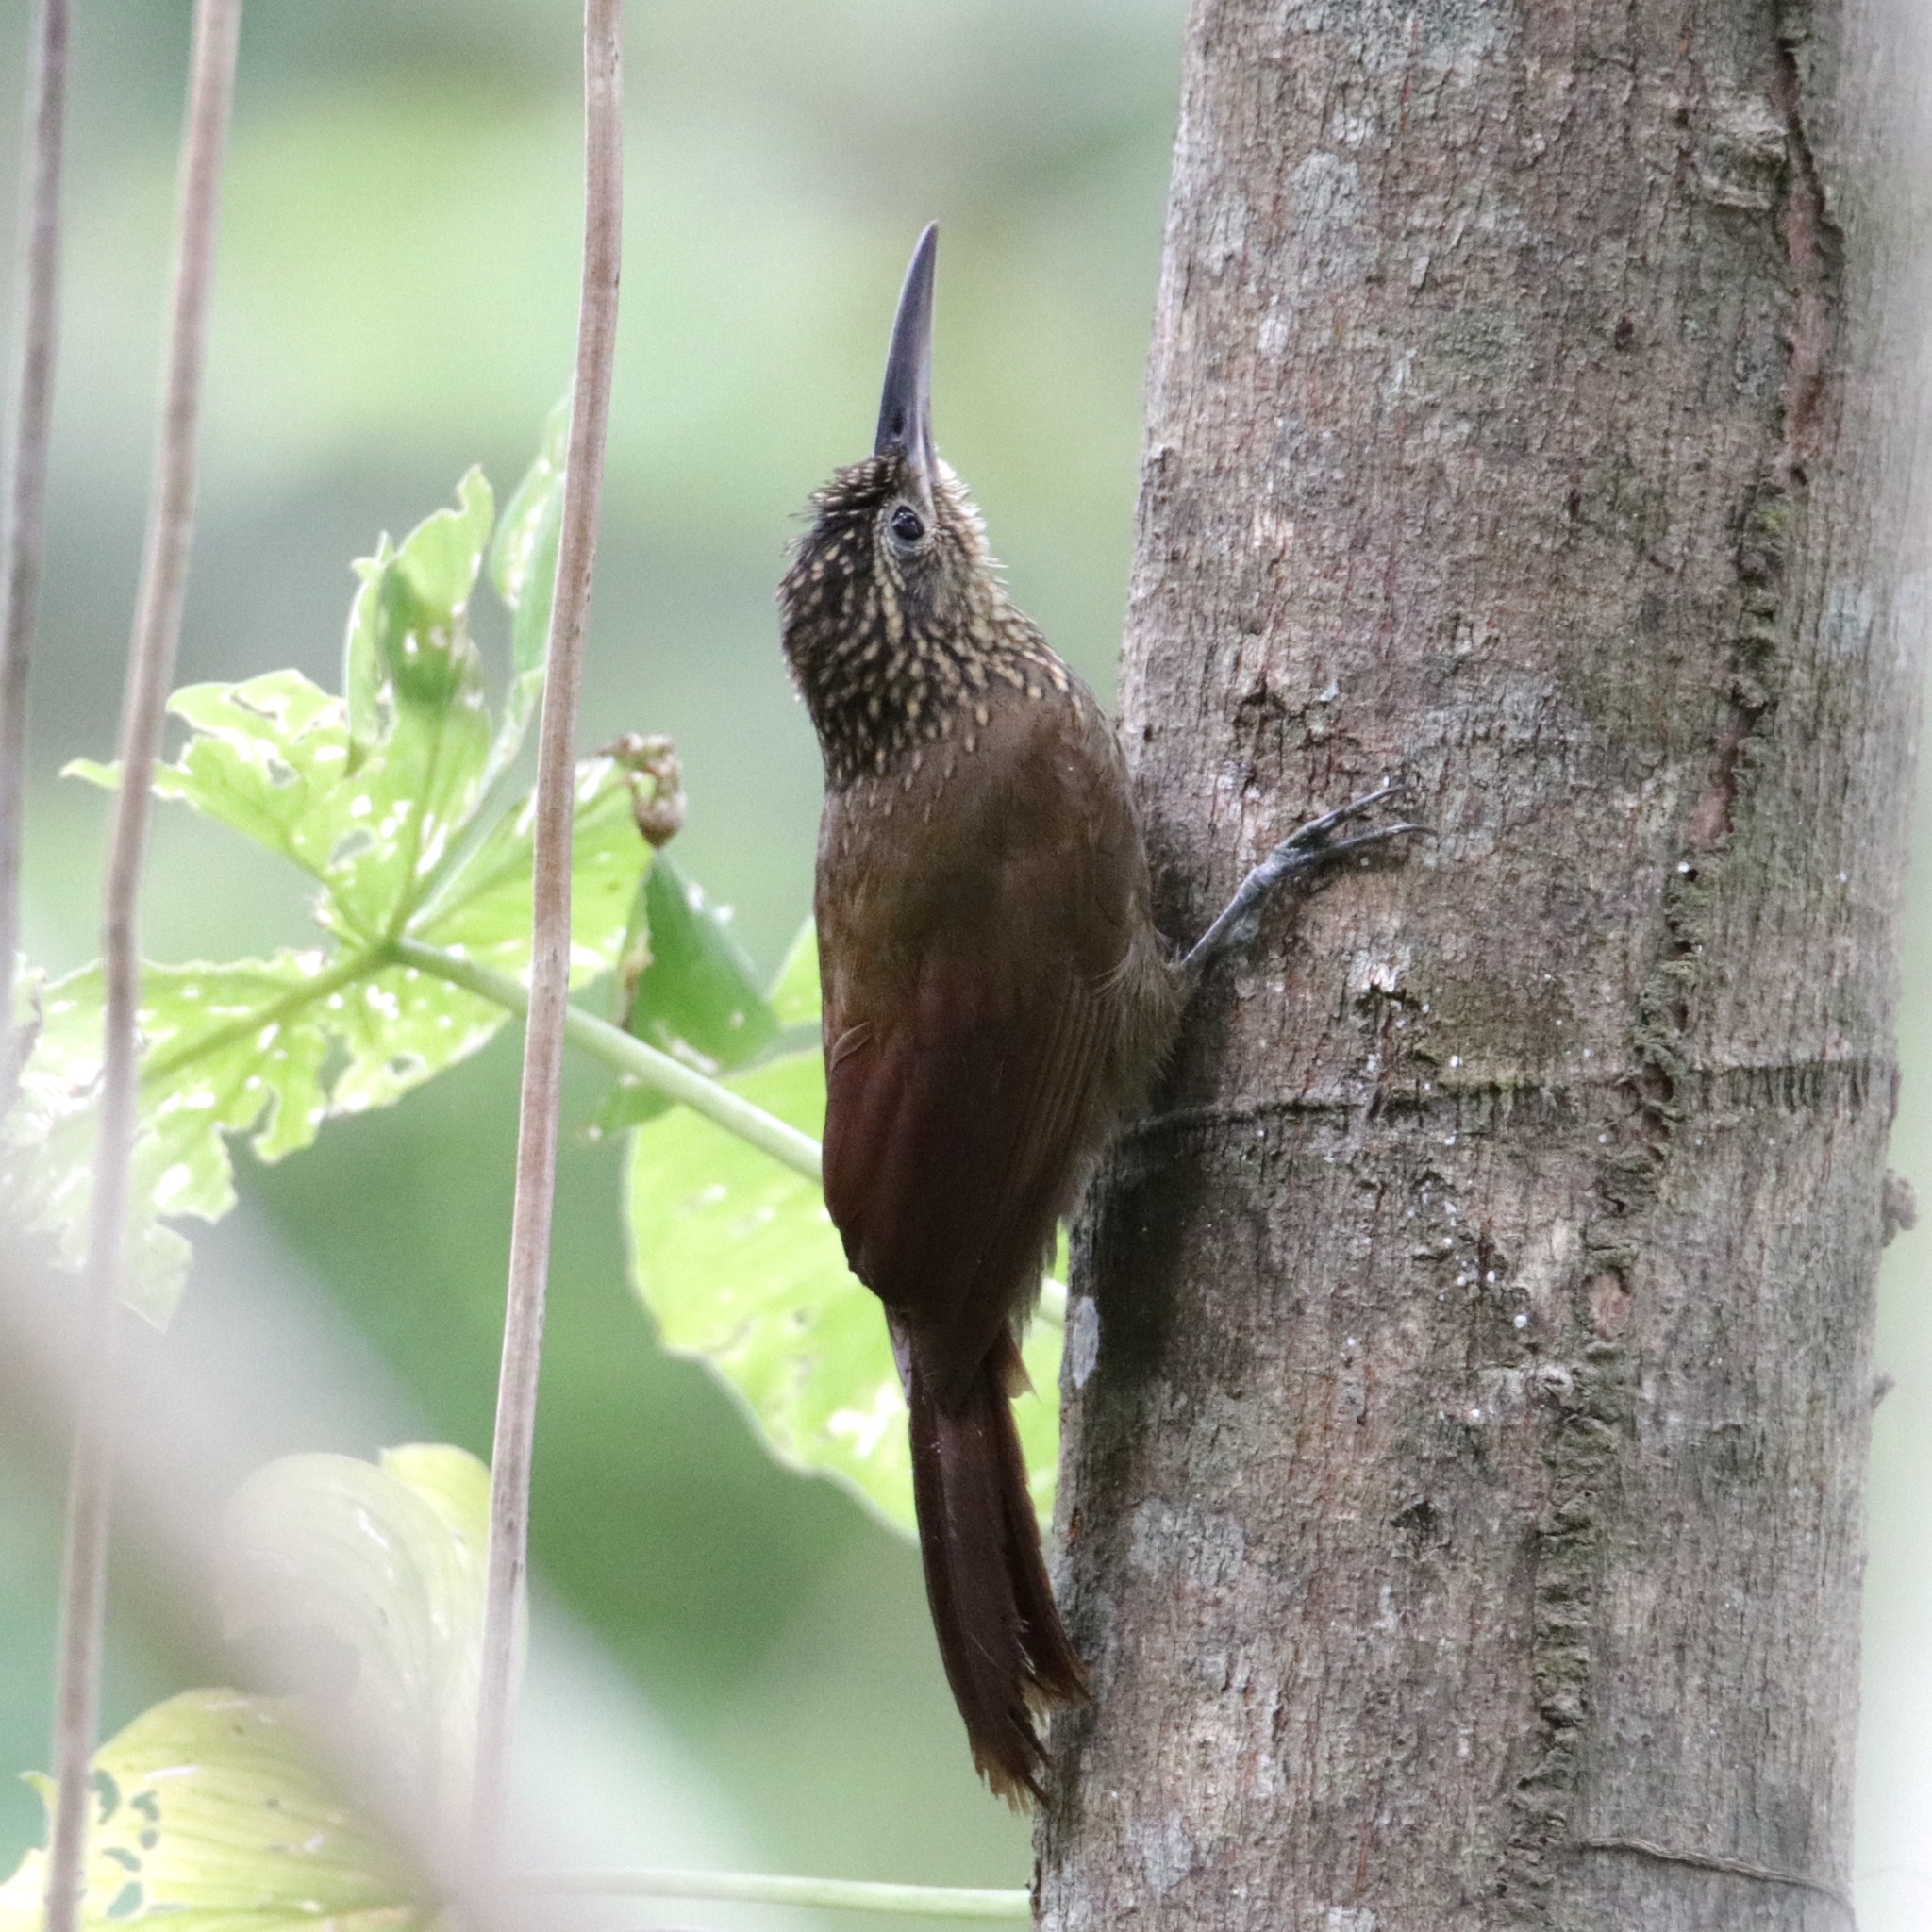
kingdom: Animalia
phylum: Chordata
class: Aves
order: Passeriformes
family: Furnariidae
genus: Xiphorhynchus
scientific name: Xiphorhynchus susurrans
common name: Cocoa woodcreeper
